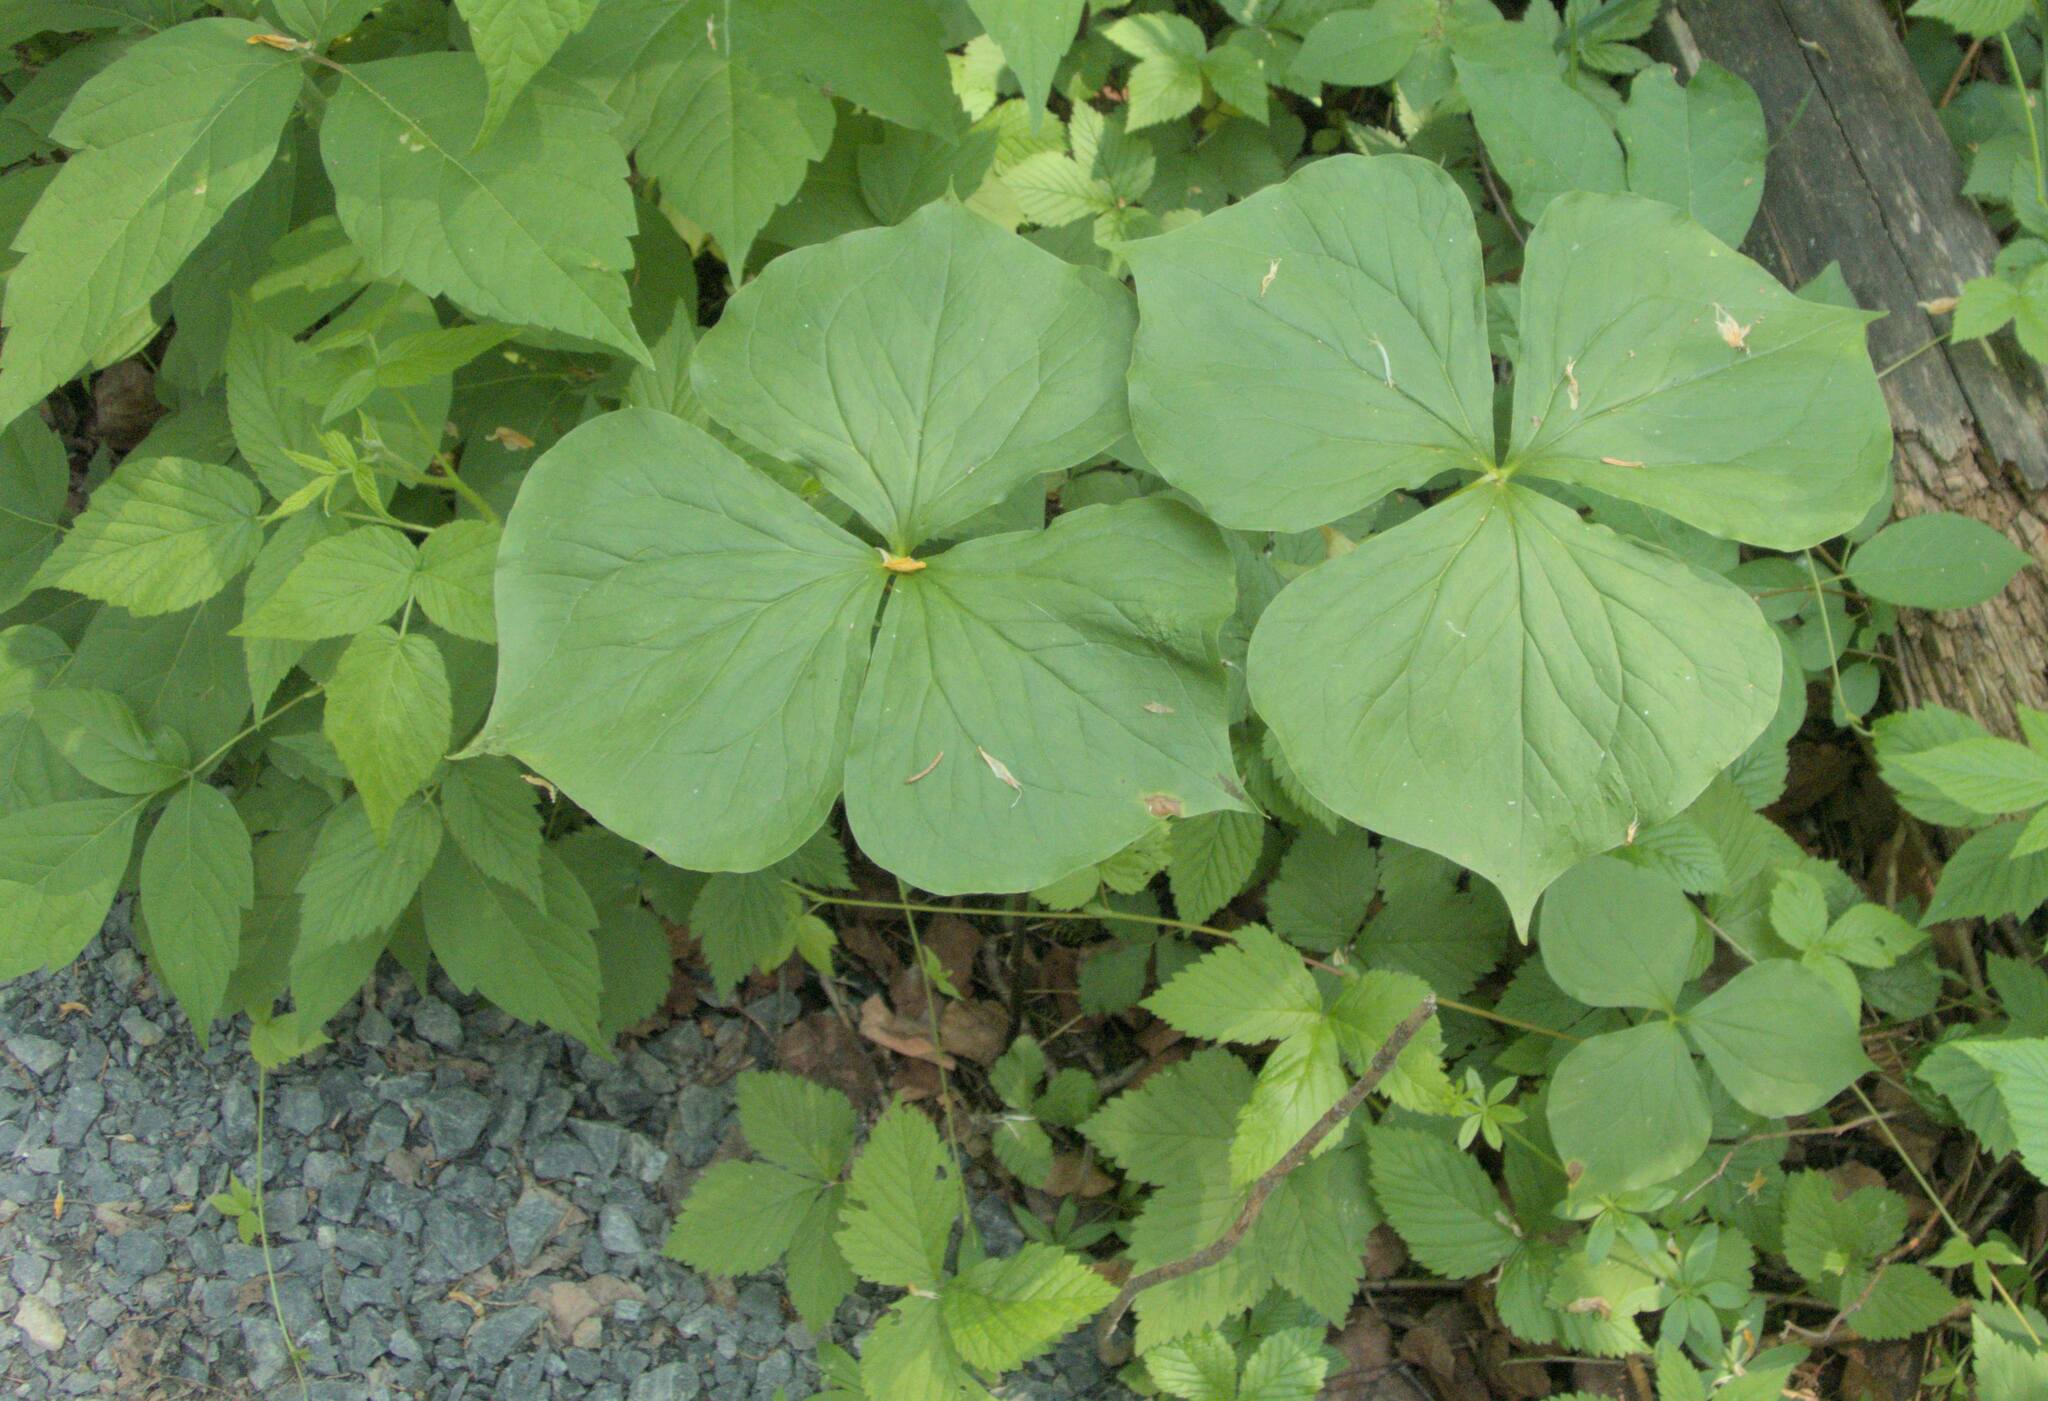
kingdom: Plantae
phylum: Tracheophyta
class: Liliopsida
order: Liliales
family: Melanthiaceae
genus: Trillium
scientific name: Trillium cernuum
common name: Nodding trillium
